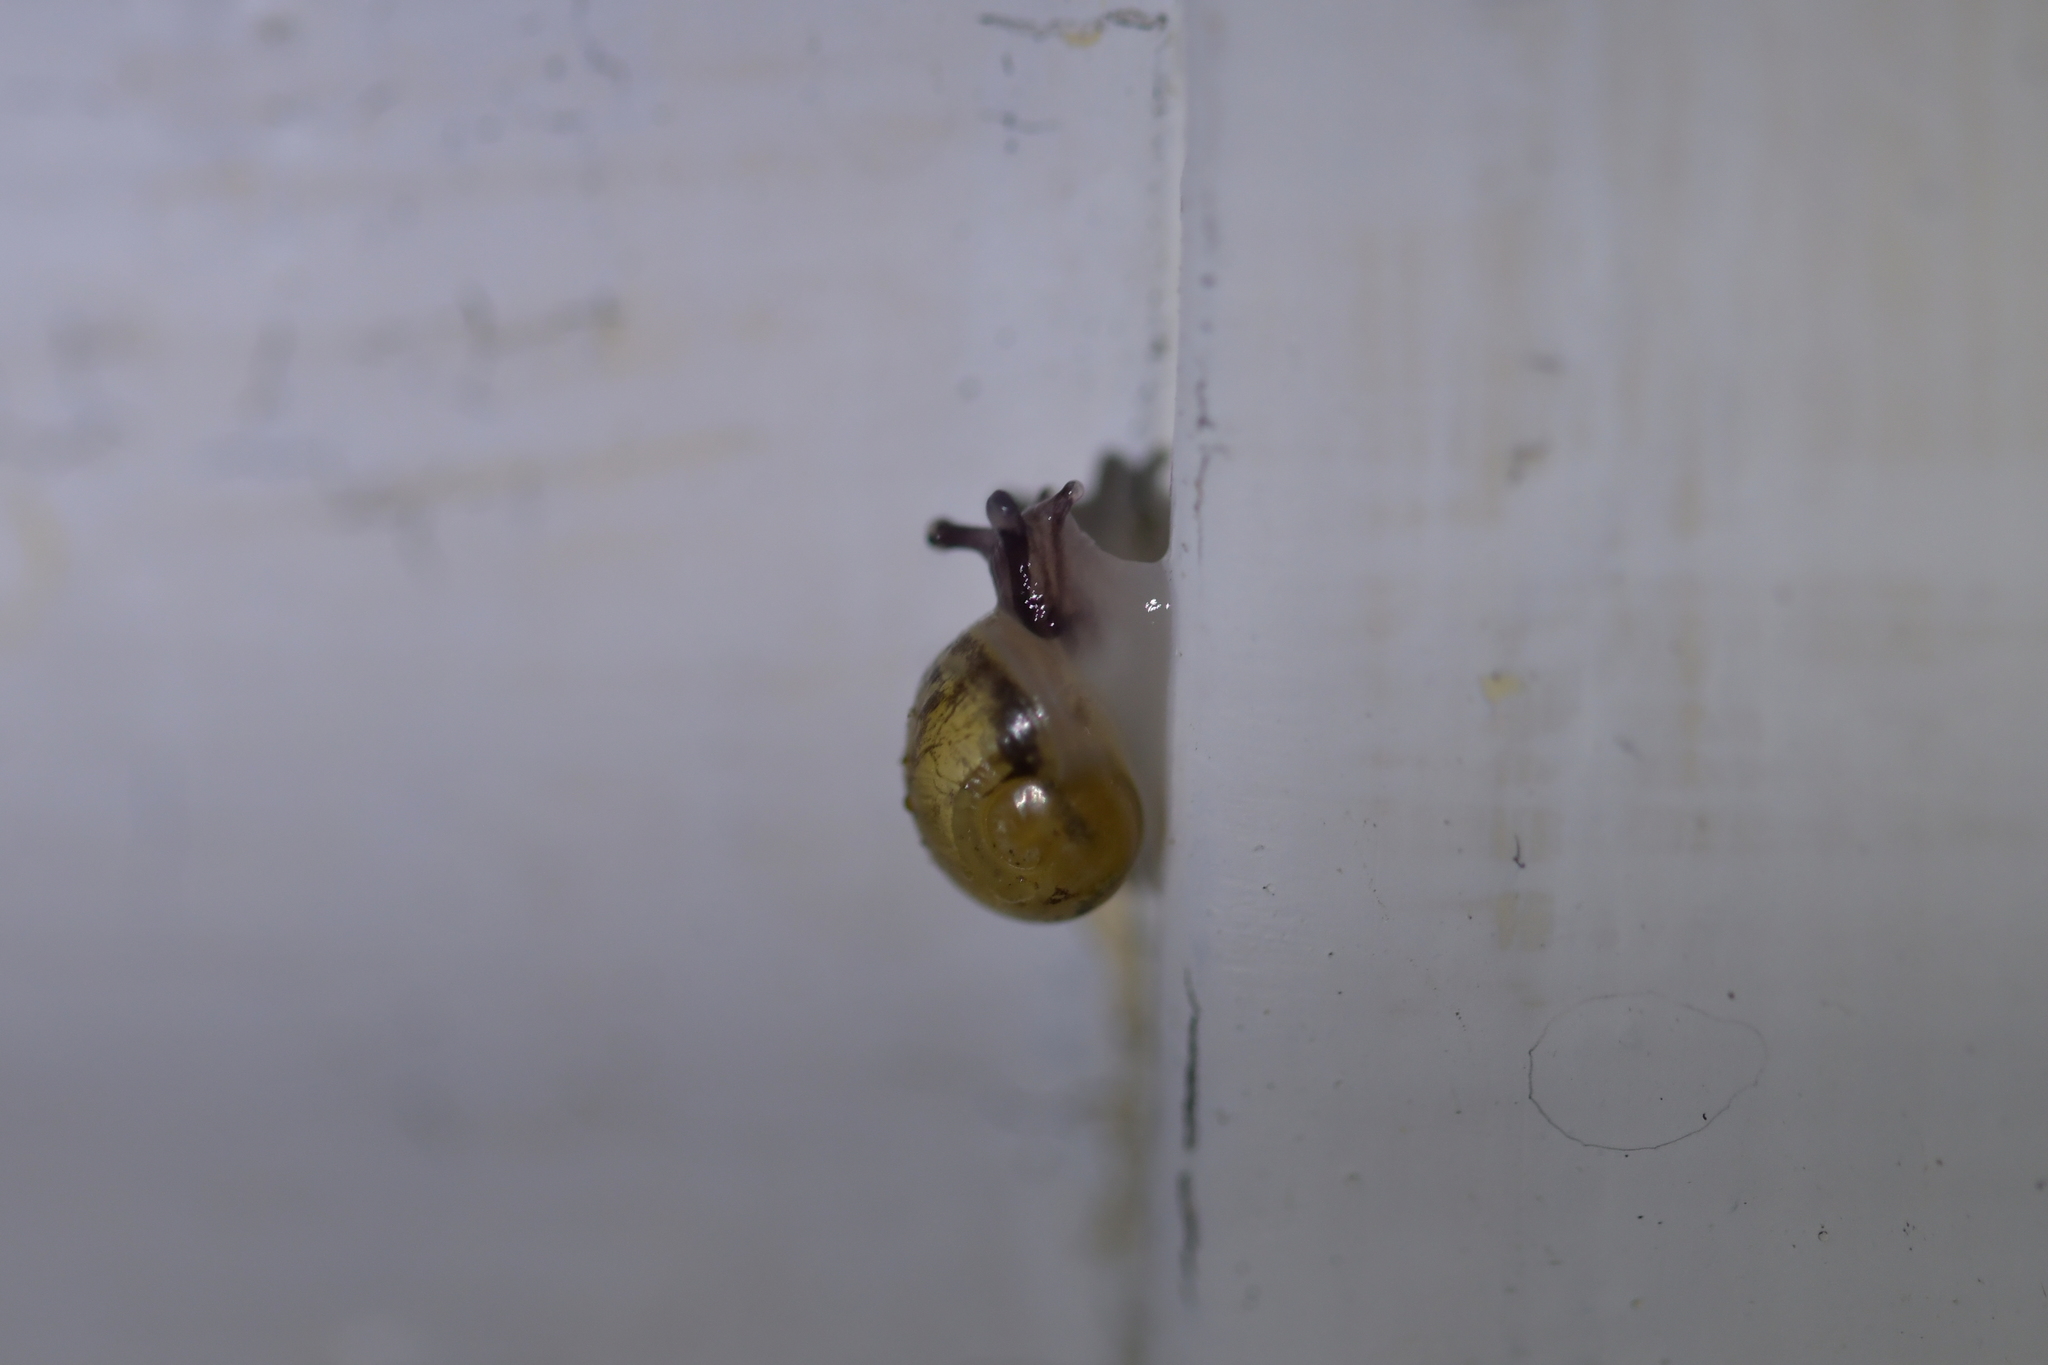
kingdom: Animalia
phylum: Mollusca
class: Gastropoda
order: Stylommatophora
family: Helicidae
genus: Cornu
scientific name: Cornu aspersum
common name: Brown garden snail
